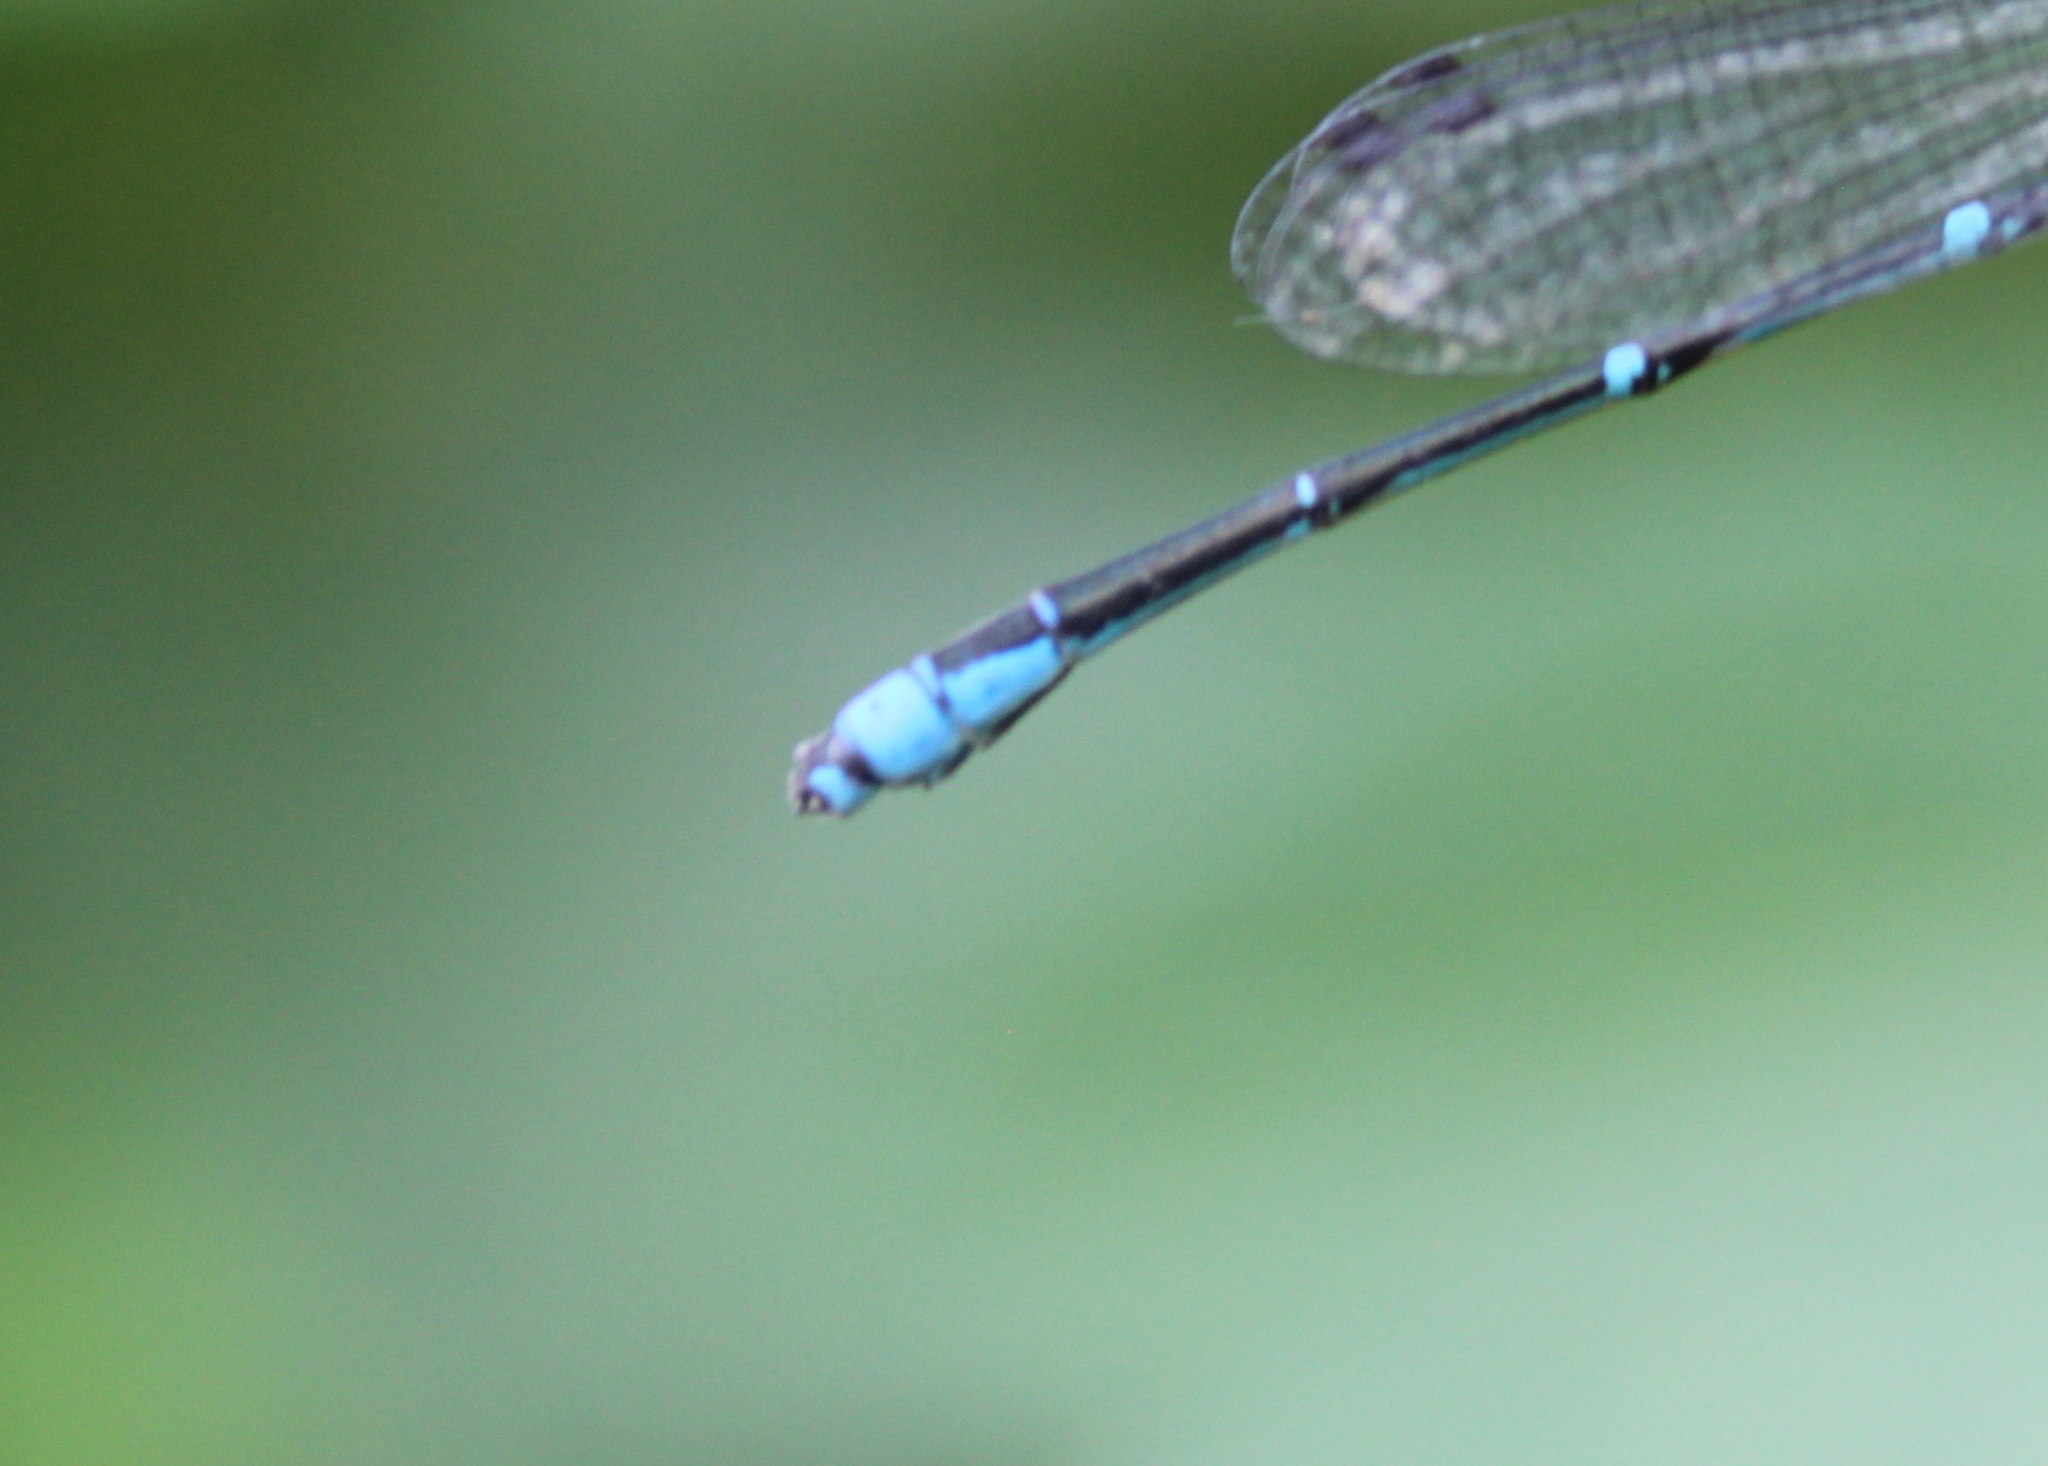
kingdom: Animalia
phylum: Arthropoda
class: Insecta
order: Odonata
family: Coenagrionidae
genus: Enallagma
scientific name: Enallagma exsulans
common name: Stream bluet
